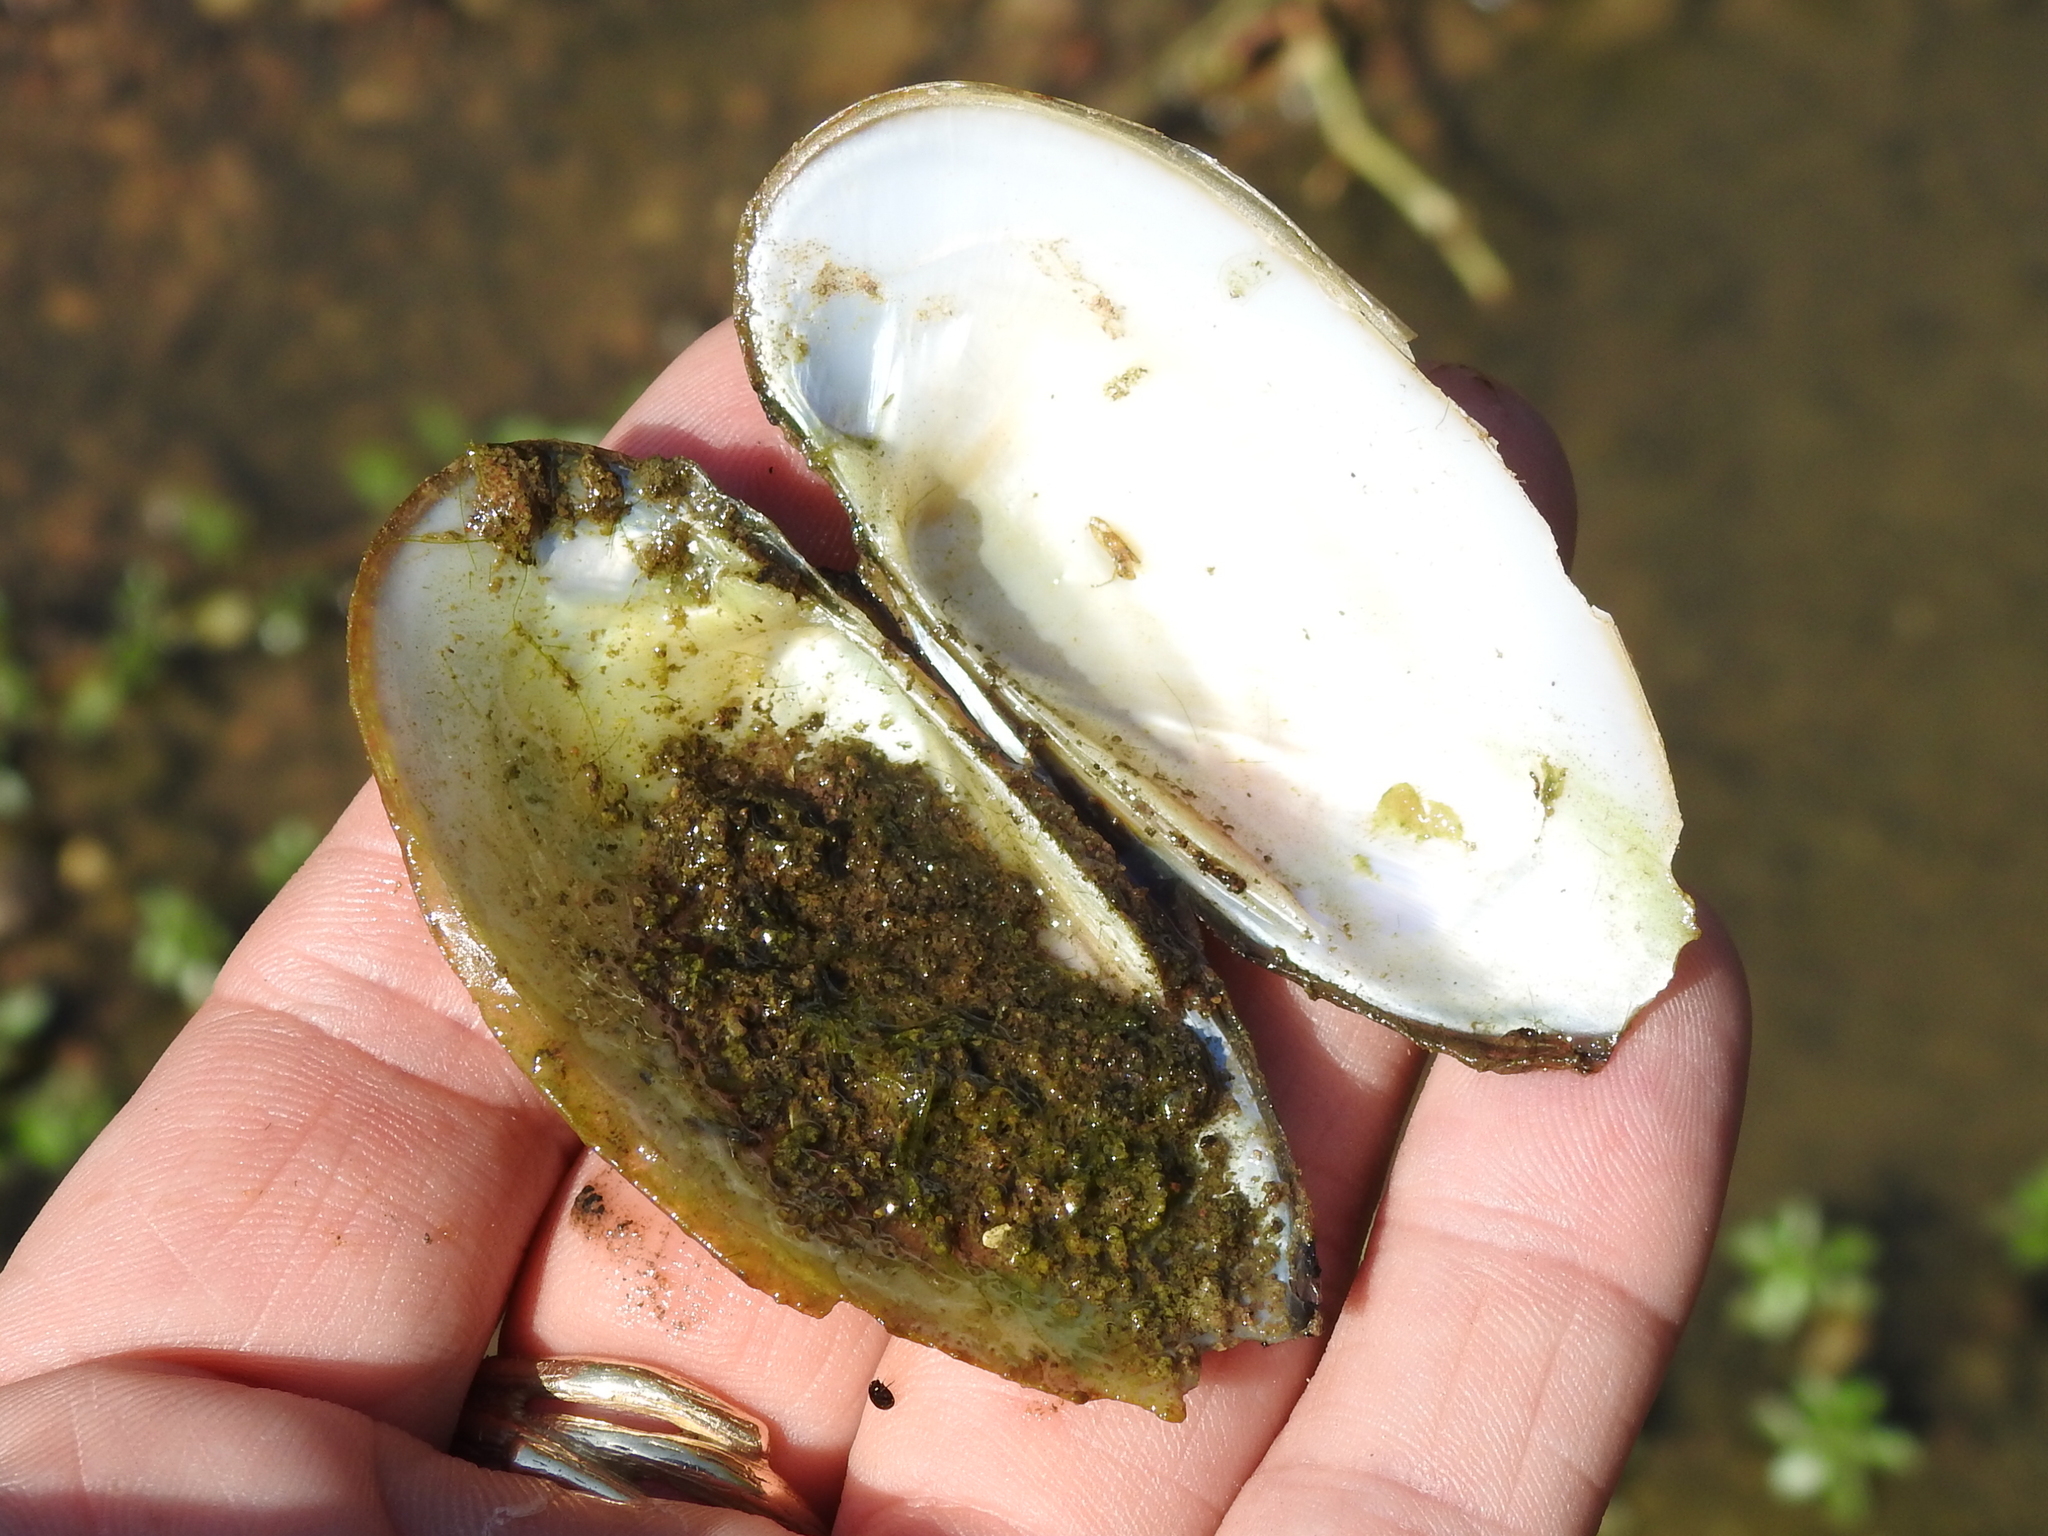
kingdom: Animalia
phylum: Mollusca
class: Bivalvia
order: Unionida
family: Unionidae
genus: Lampsilis
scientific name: Lampsilis teres
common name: Yellow sandshell
